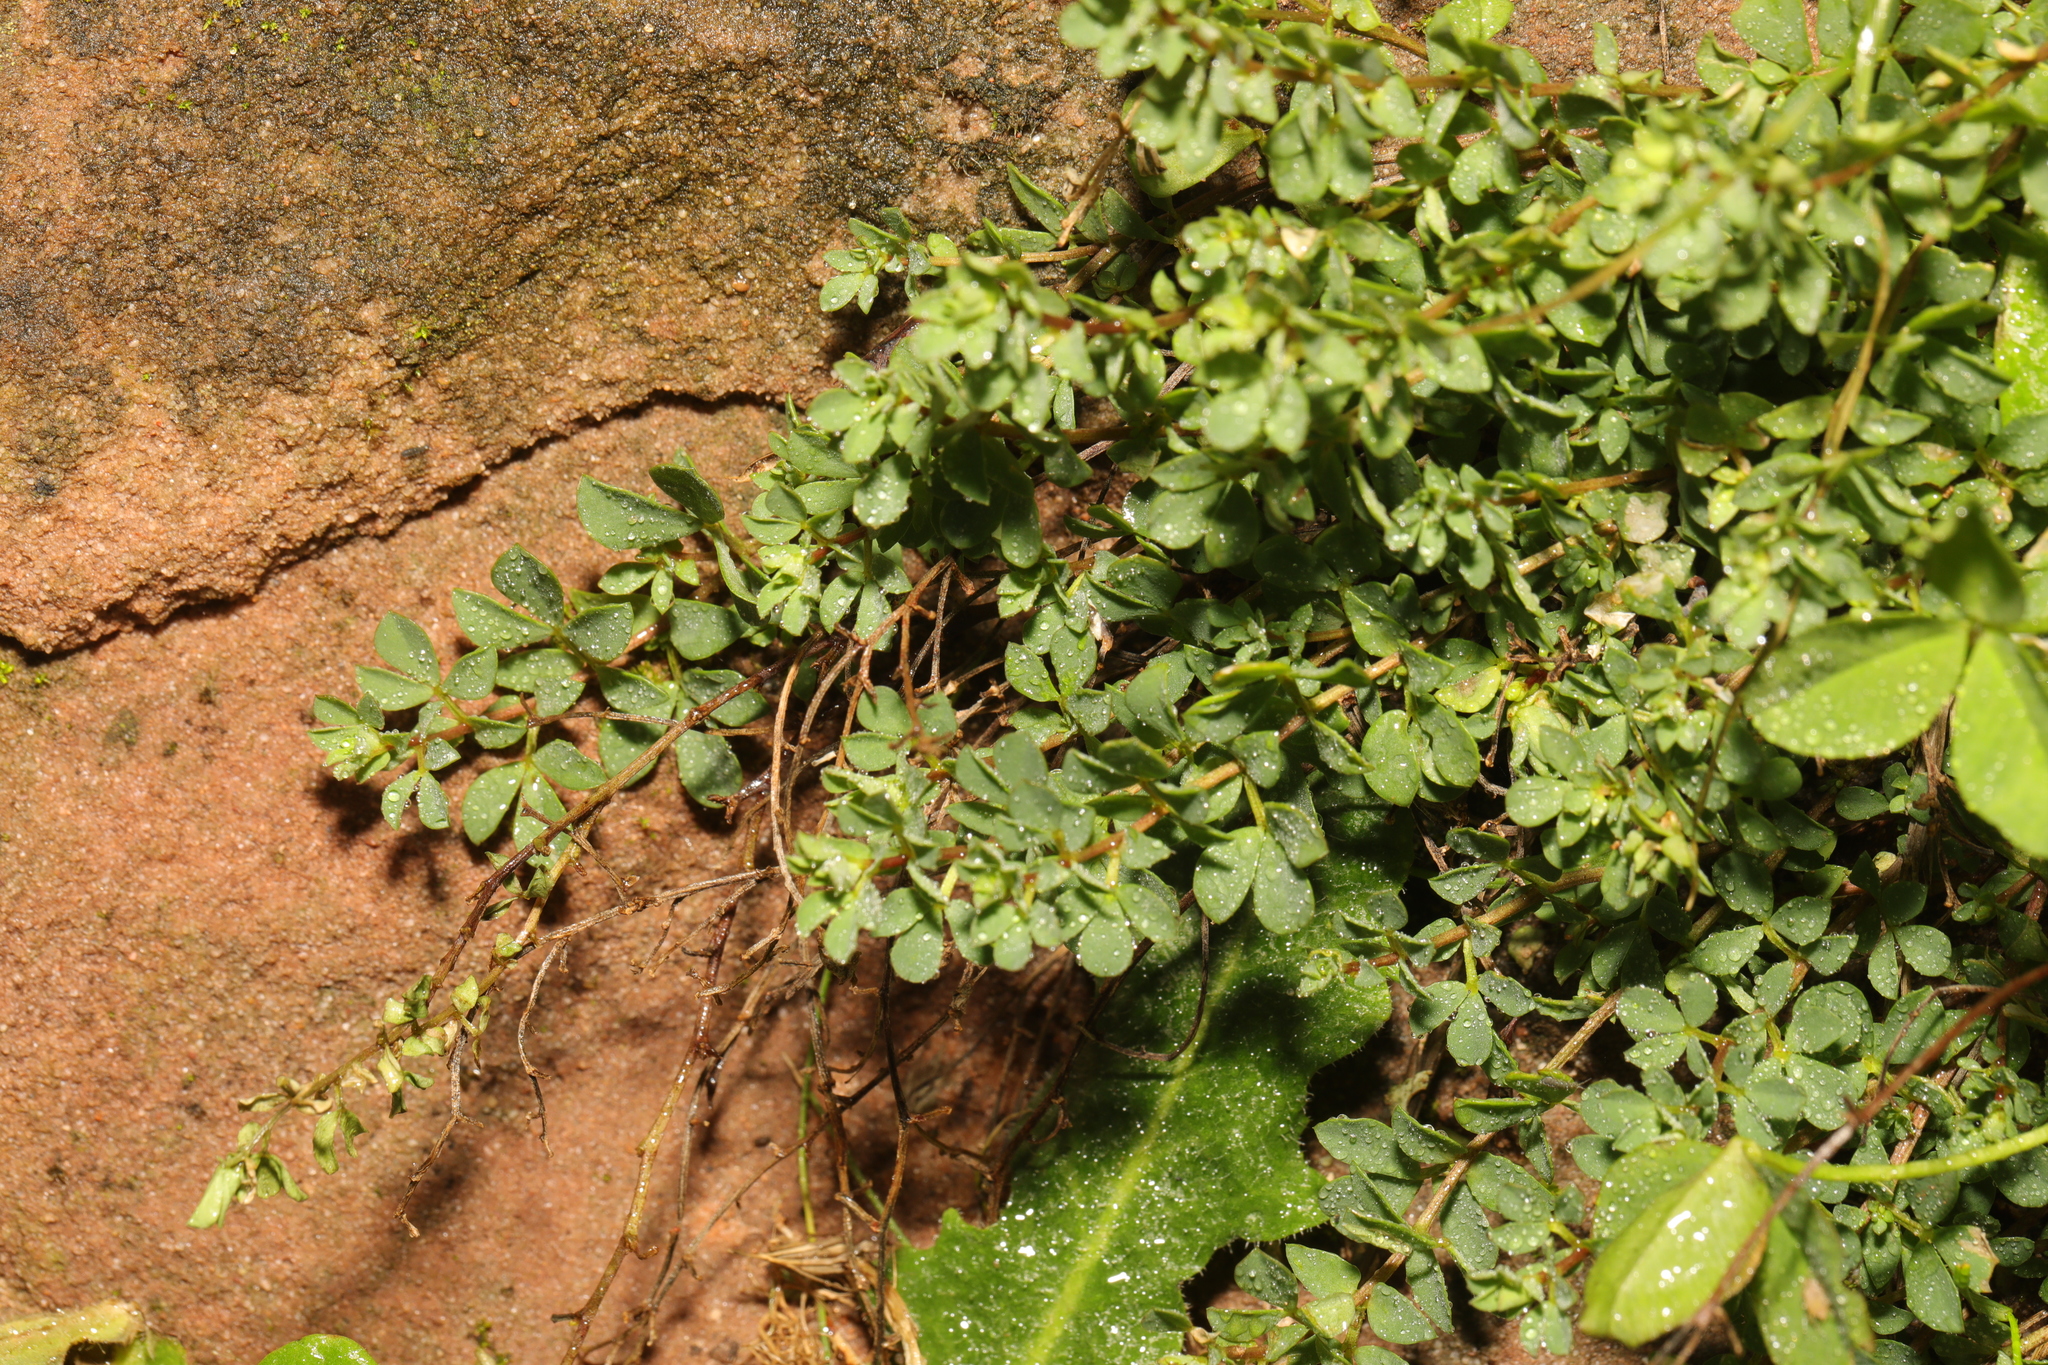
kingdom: Plantae
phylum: Tracheophyta
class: Magnoliopsida
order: Fabales
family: Fabaceae
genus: Lotus
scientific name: Lotus corniculatus
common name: Common bird's-foot-trefoil
